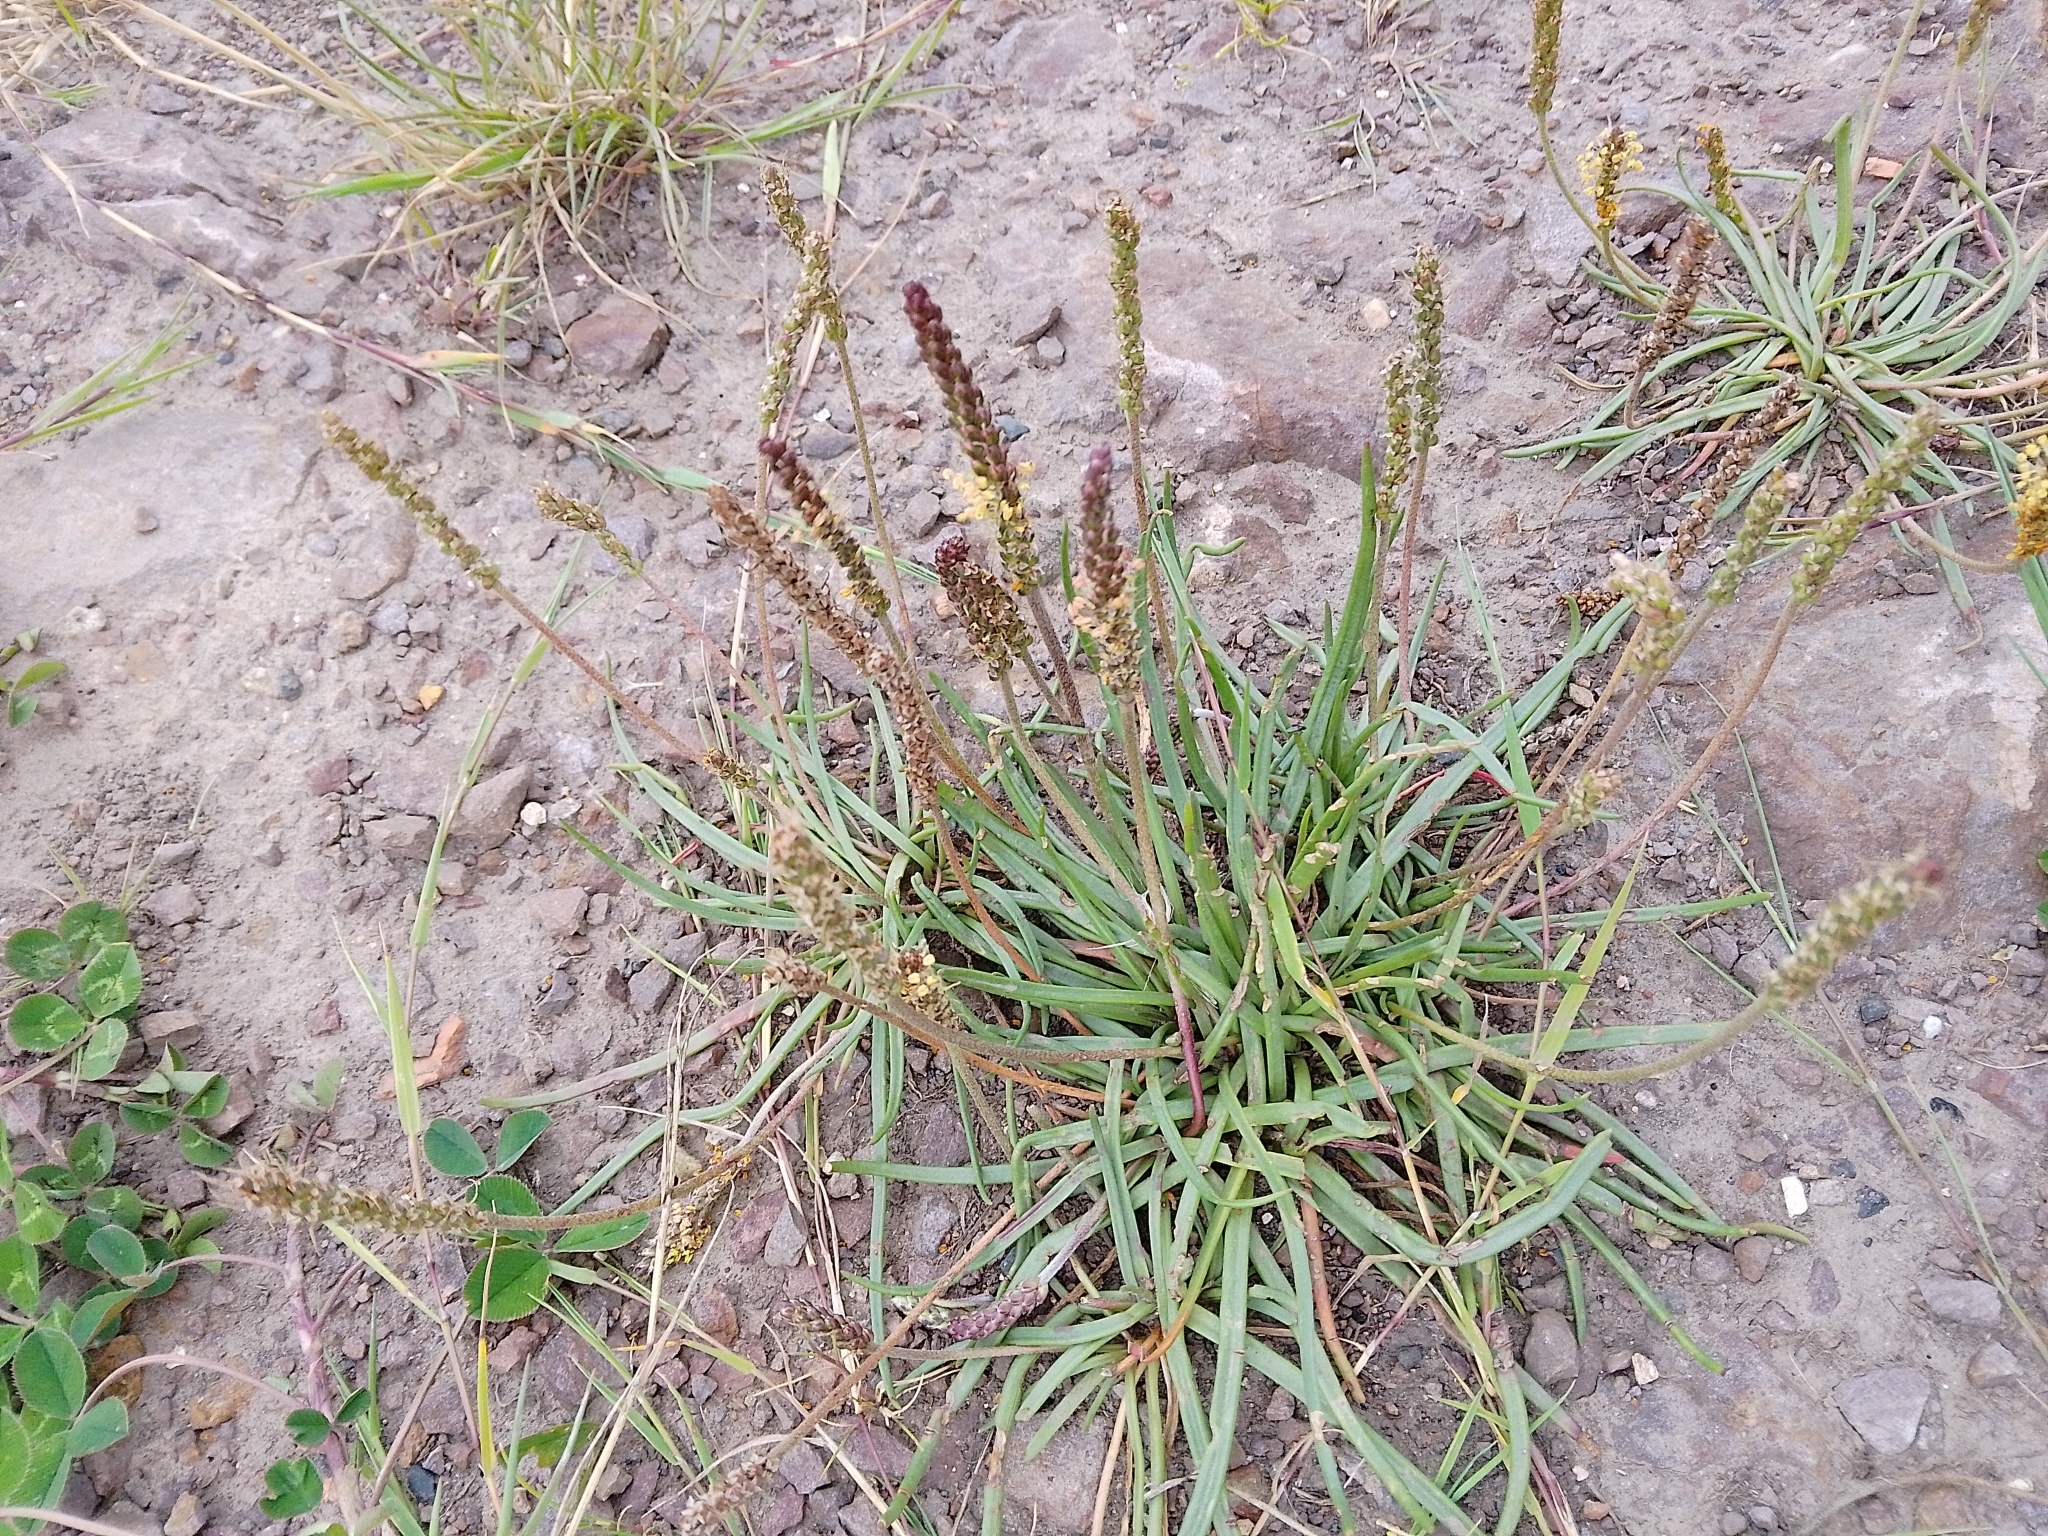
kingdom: Plantae
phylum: Tracheophyta
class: Magnoliopsida
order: Lamiales
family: Plantaginaceae
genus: Plantago
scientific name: Plantago maritima
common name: Sea plantain
